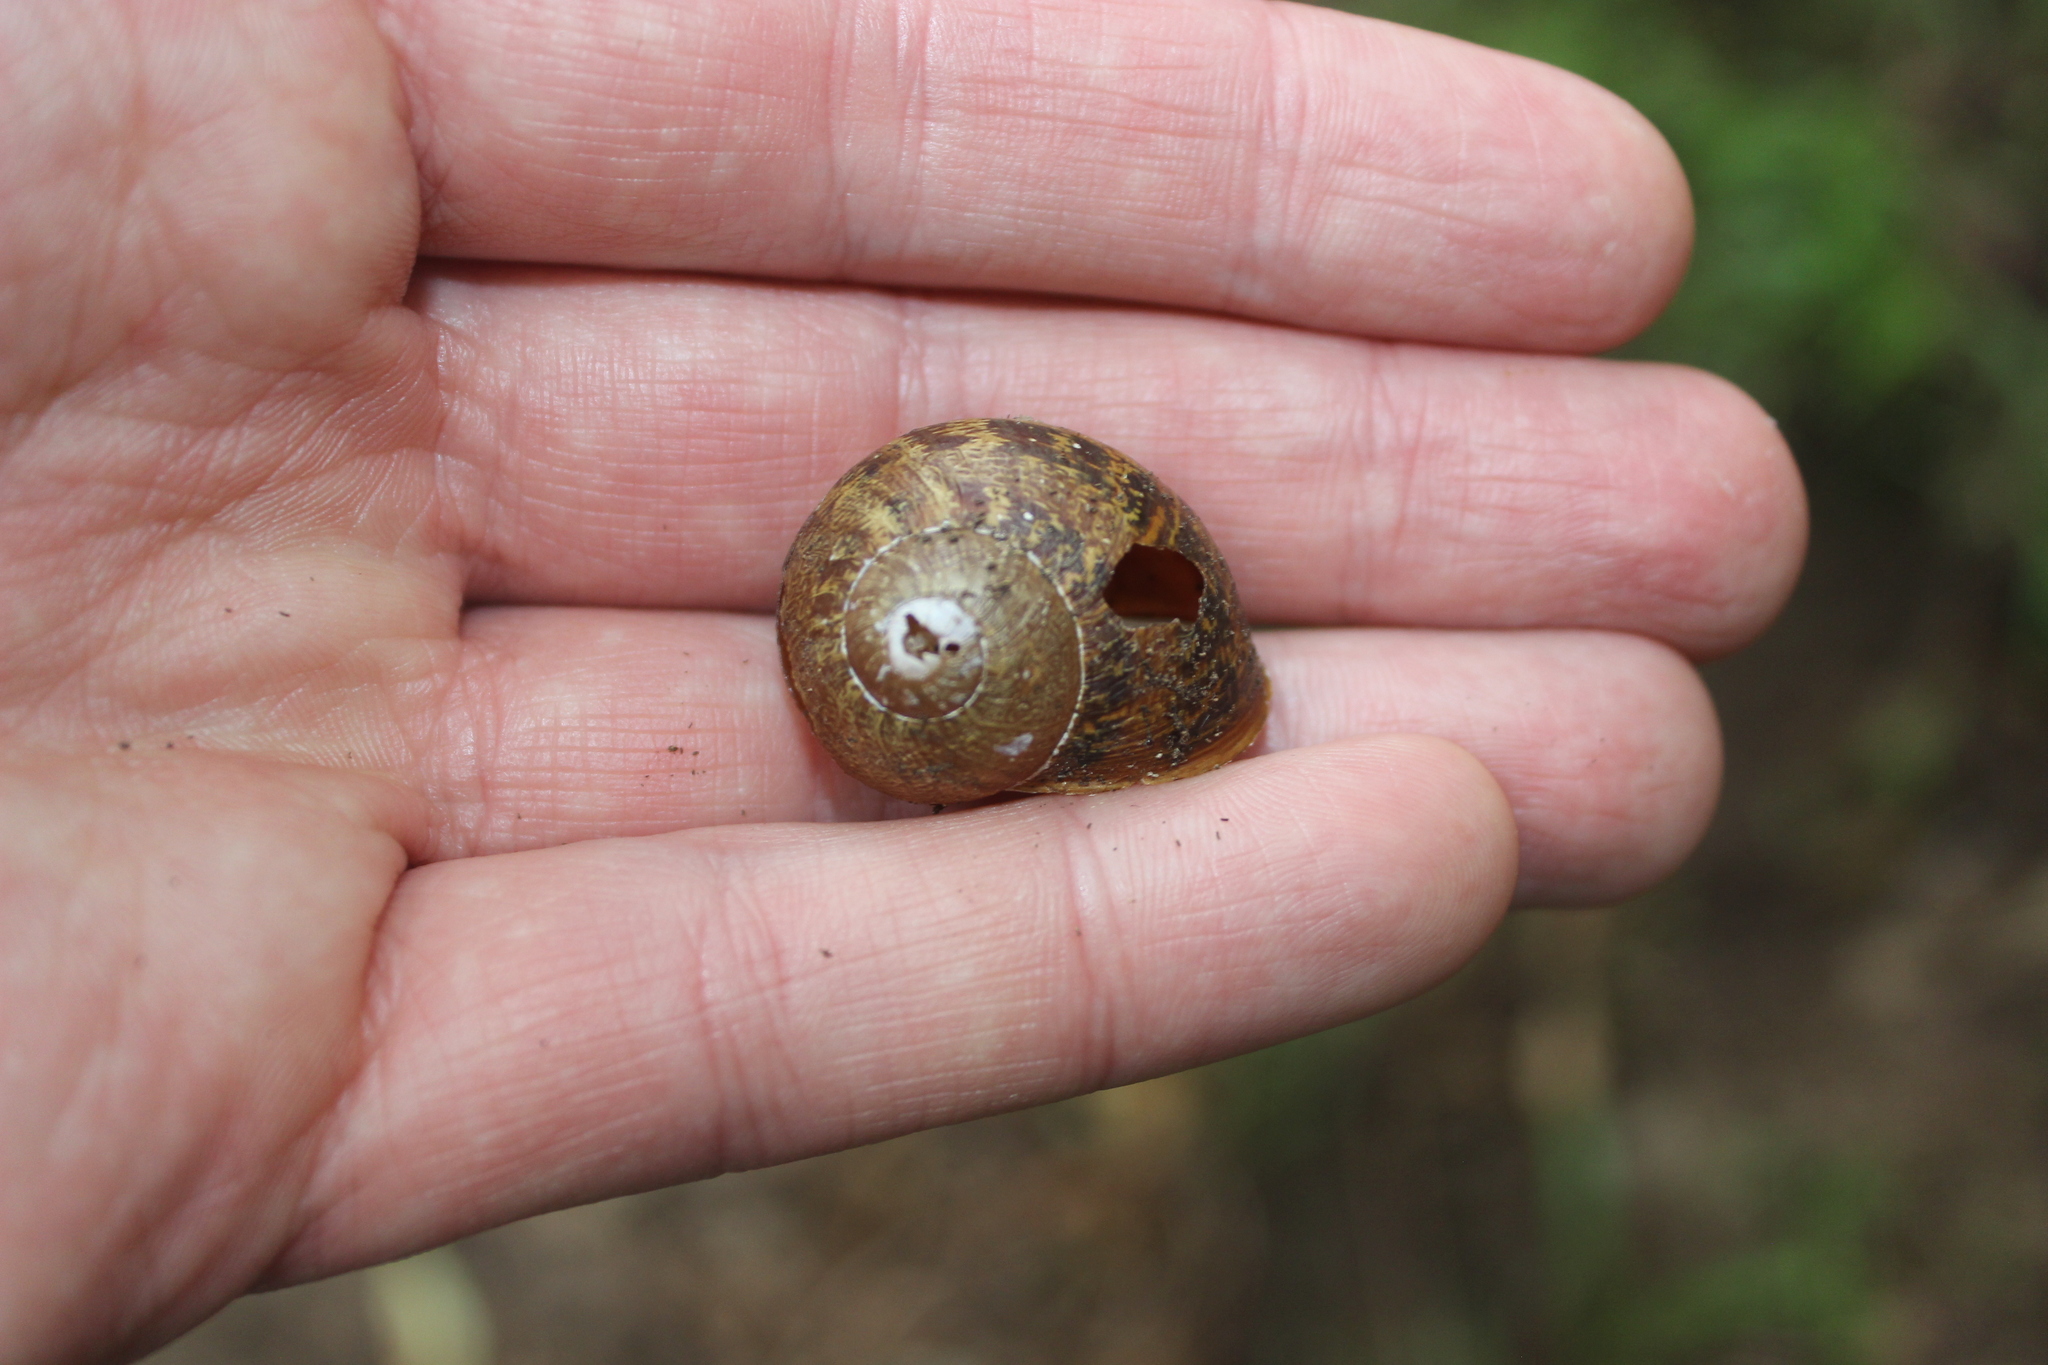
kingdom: Animalia
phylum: Mollusca
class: Gastropoda
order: Stylommatophora
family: Helicidae
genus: Cornu
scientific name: Cornu aspersum
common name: Brown garden snail
